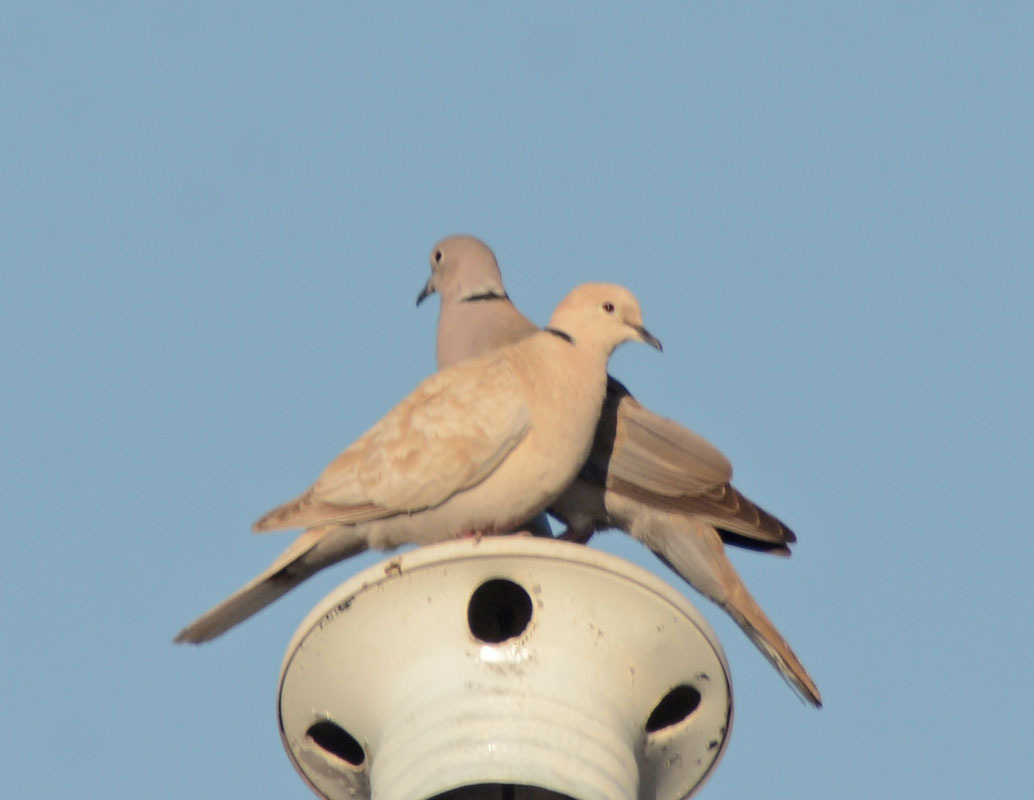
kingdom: Animalia
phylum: Chordata
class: Aves
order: Columbiformes
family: Columbidae
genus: Streptopelia
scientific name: Streptopelia decaocto
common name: Eurasian collared dove
